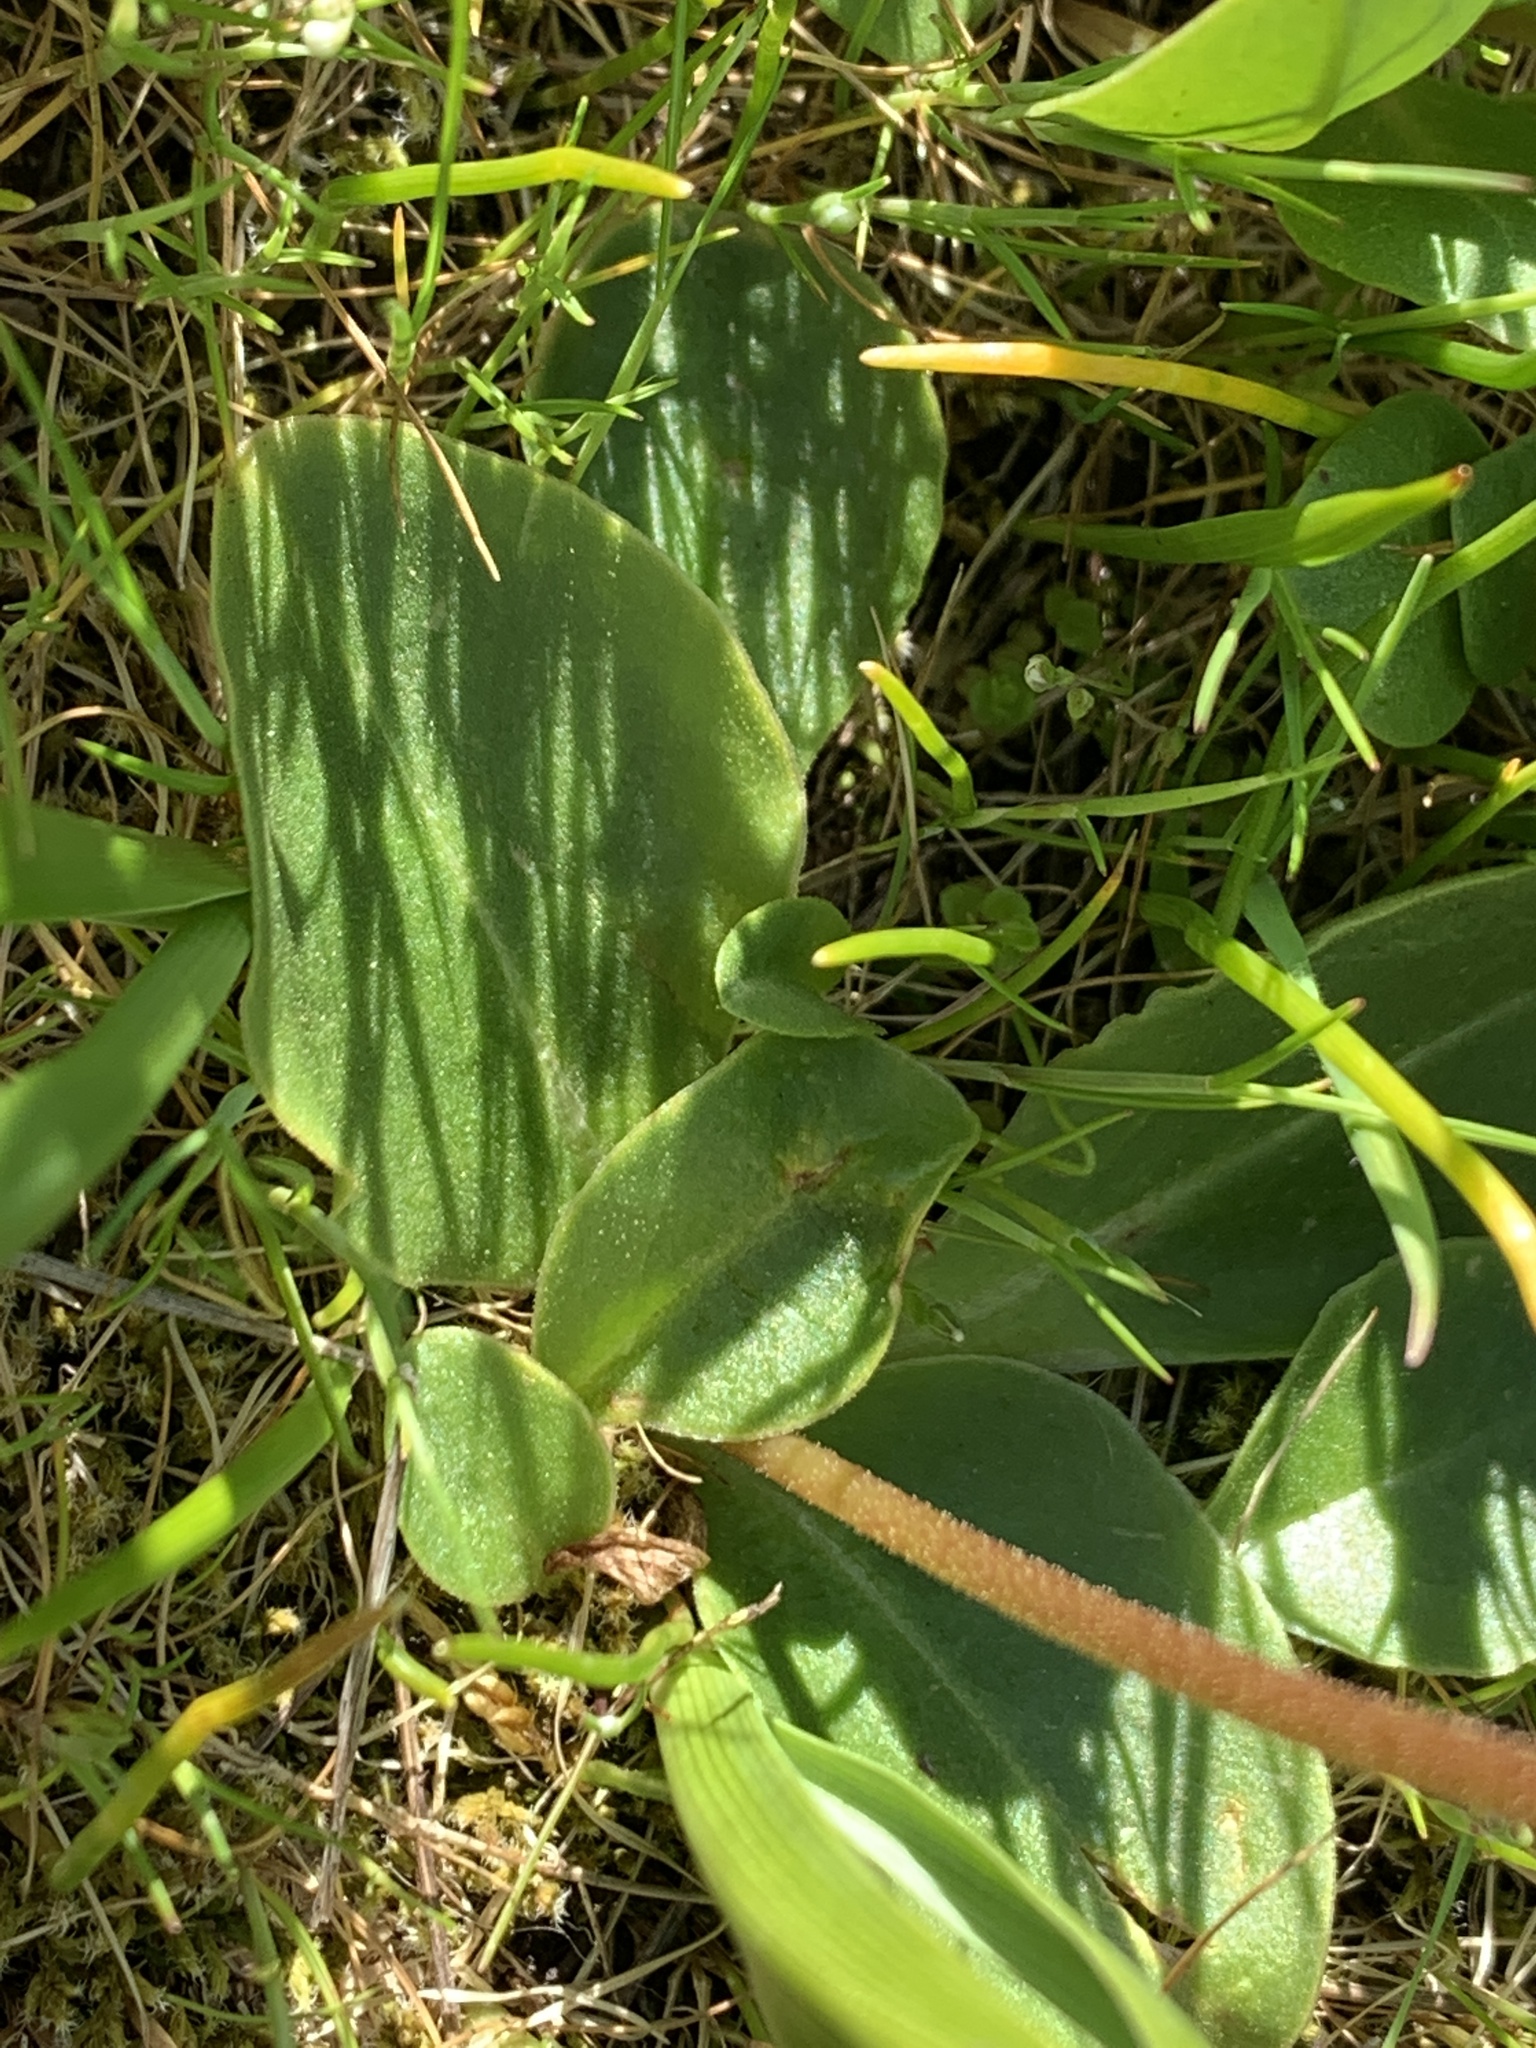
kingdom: Plantae
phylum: Tracheophyta
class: Magnoliopsida
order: Ericales
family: Primulaceae
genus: Dodecatheon
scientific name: Dodecatheon hendersonii
